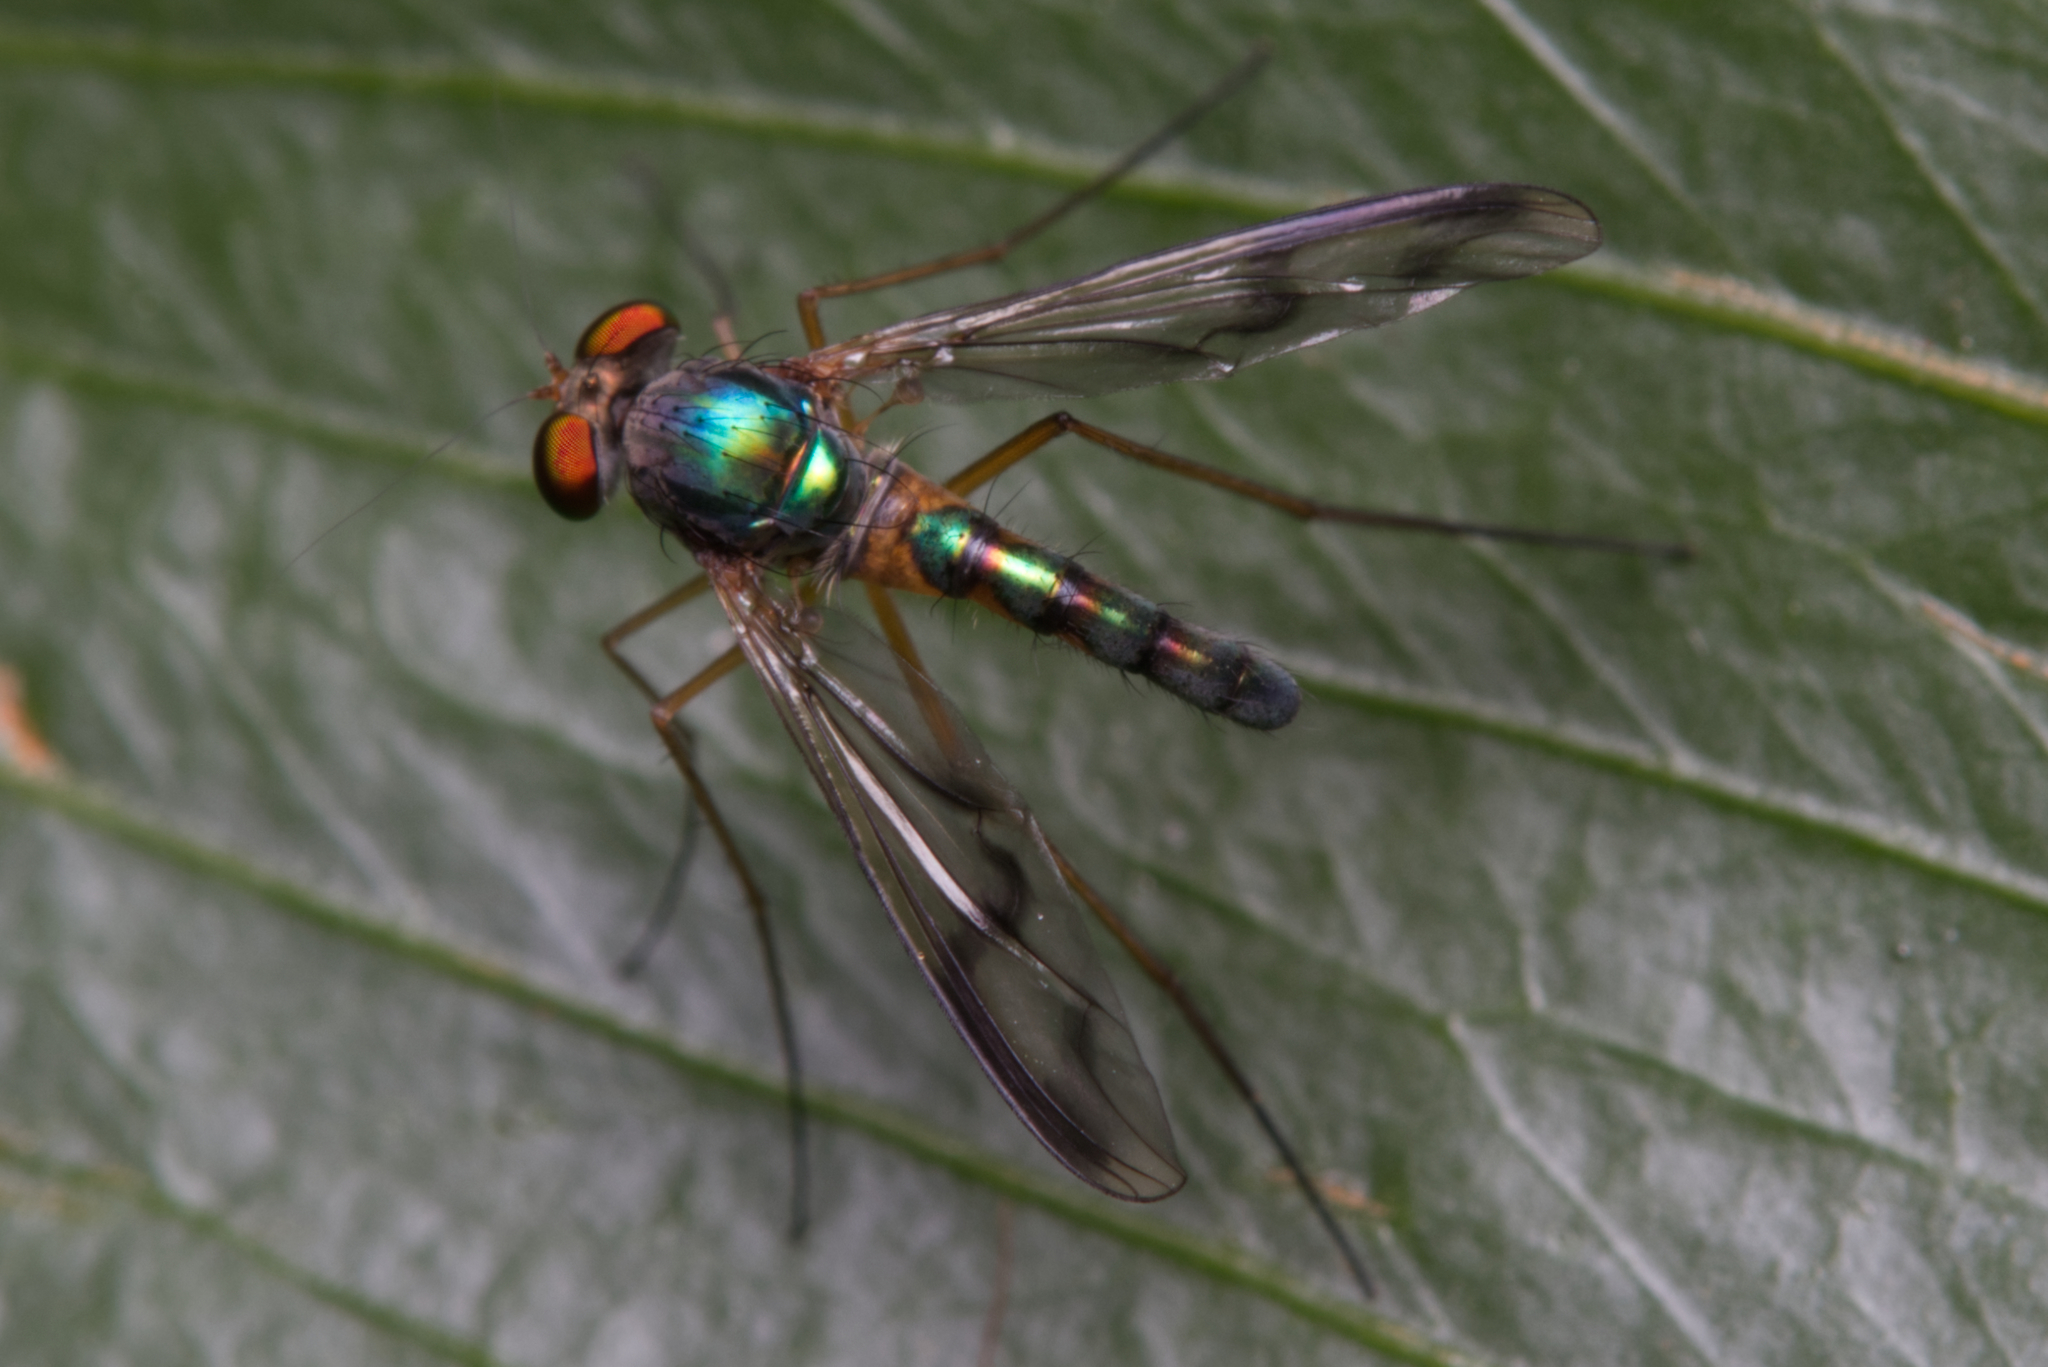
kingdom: Animalia
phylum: Arthropoda
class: Insecta
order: Diptera
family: Dolichopodidae
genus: Heteropsilopus
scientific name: Heteropsilopus khooi
